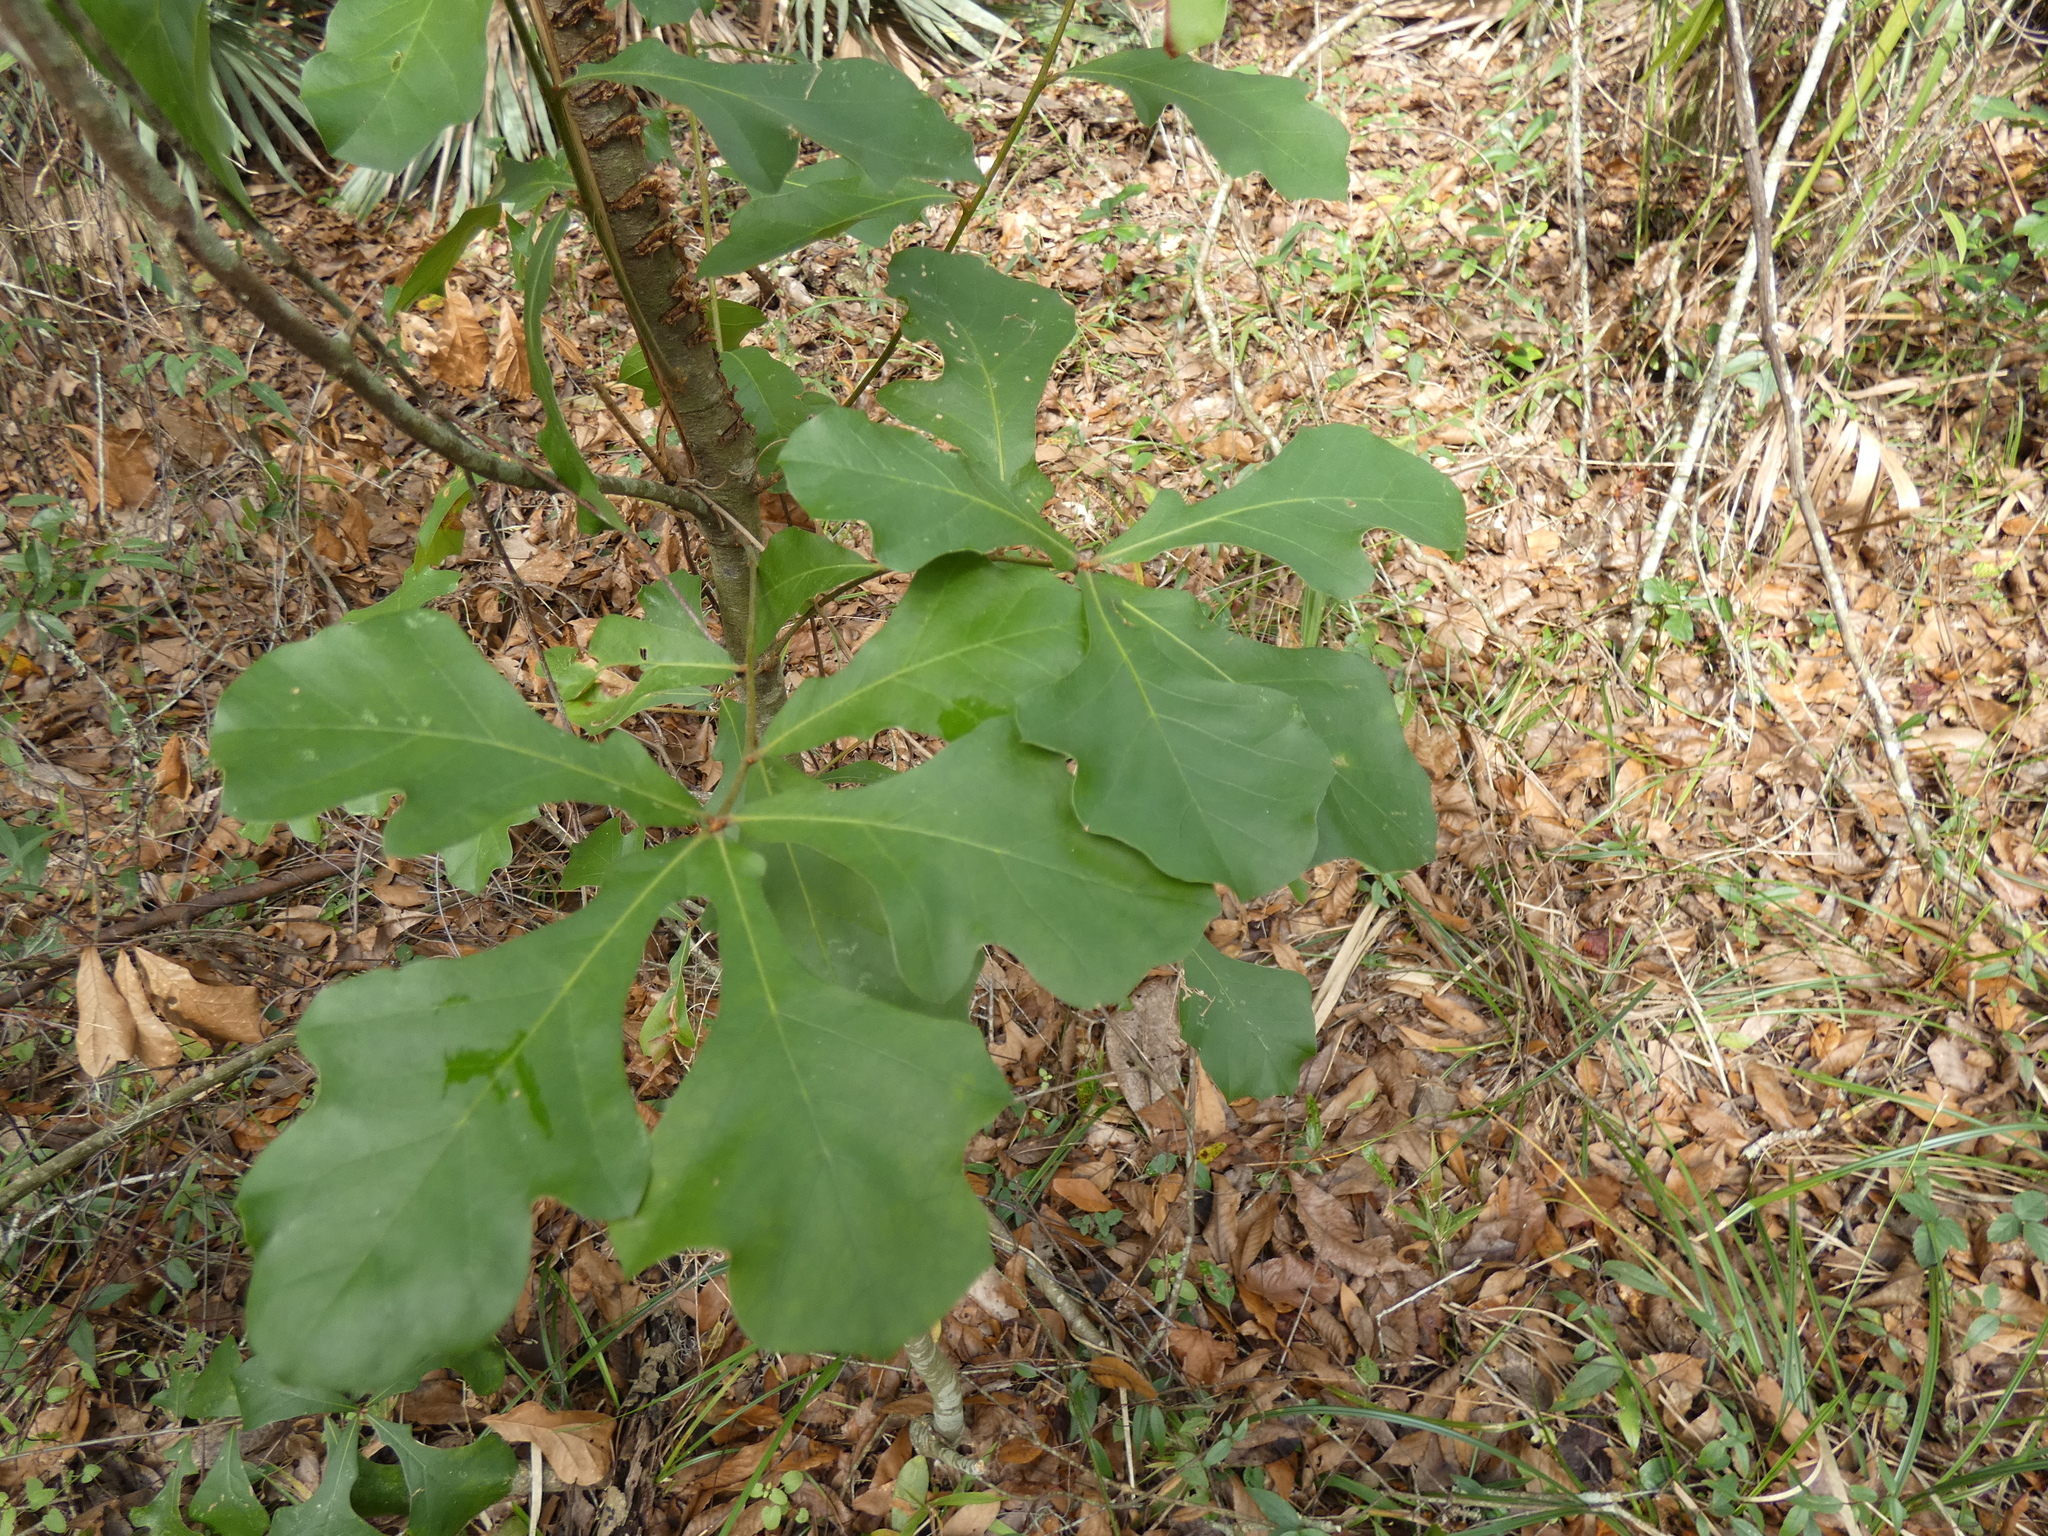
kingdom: Plantae
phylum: Tracheophyta
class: Magnoliopsida
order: Fagales
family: Fagaceae
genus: Quercus
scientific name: Quercus nigra
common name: Water oak
